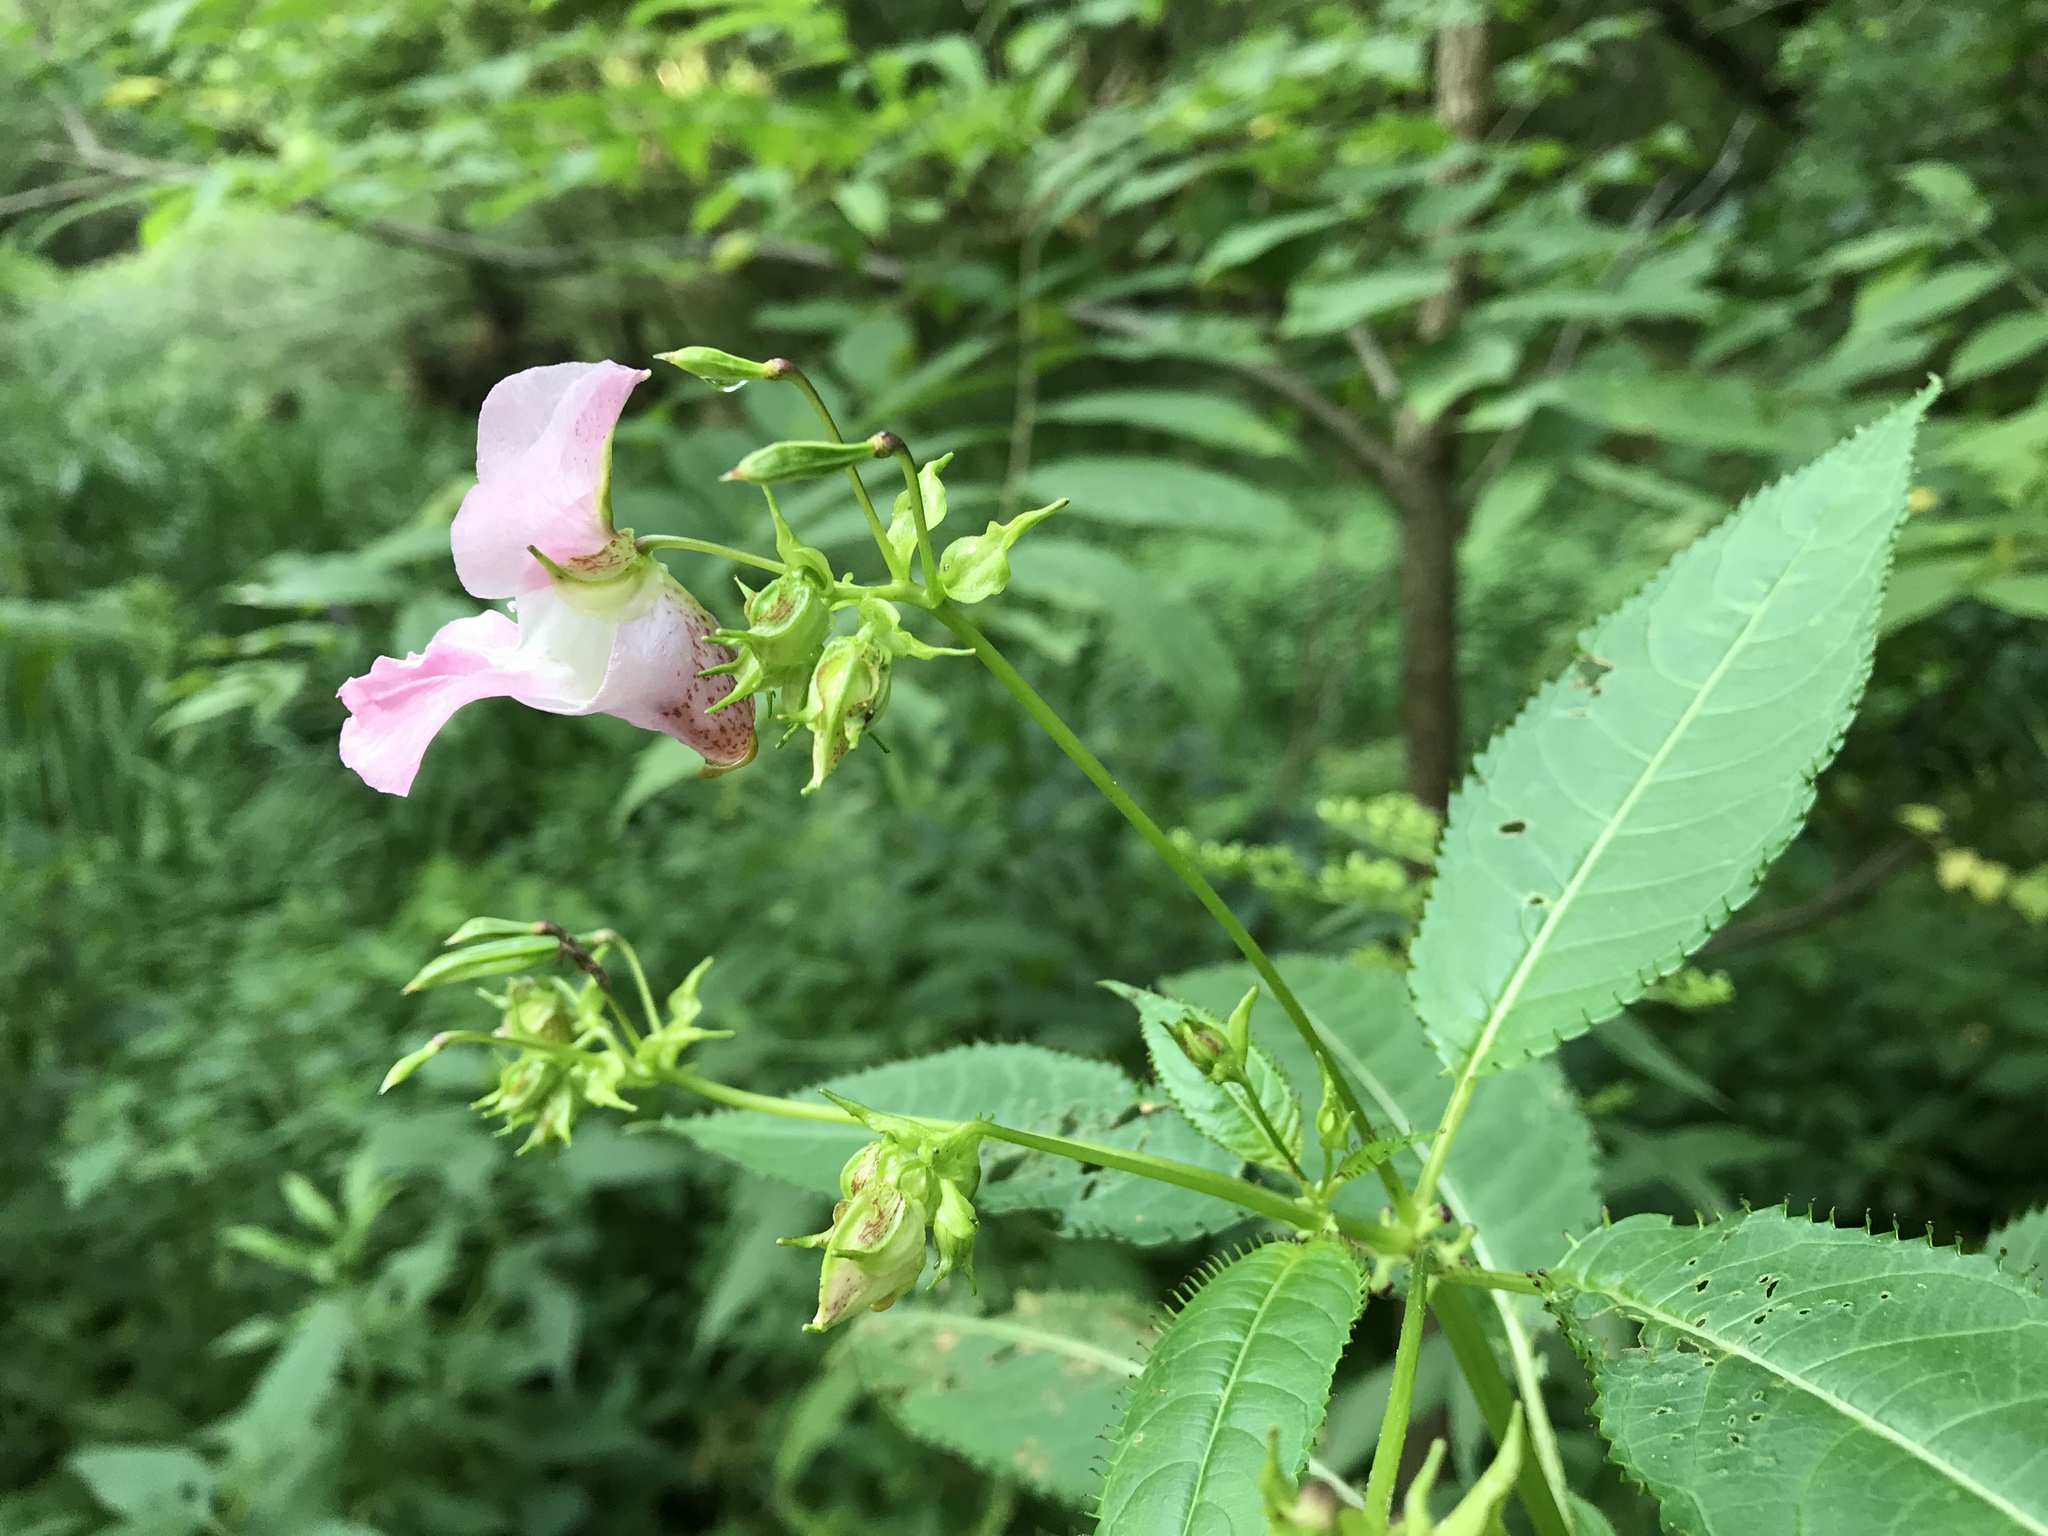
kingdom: Plantae
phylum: Tracheophyta
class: Magnoliopsida
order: Ericales
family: Balsaminaceae
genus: Impatiens
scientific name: Impatiens glandulifera
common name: Himalayan balsam
